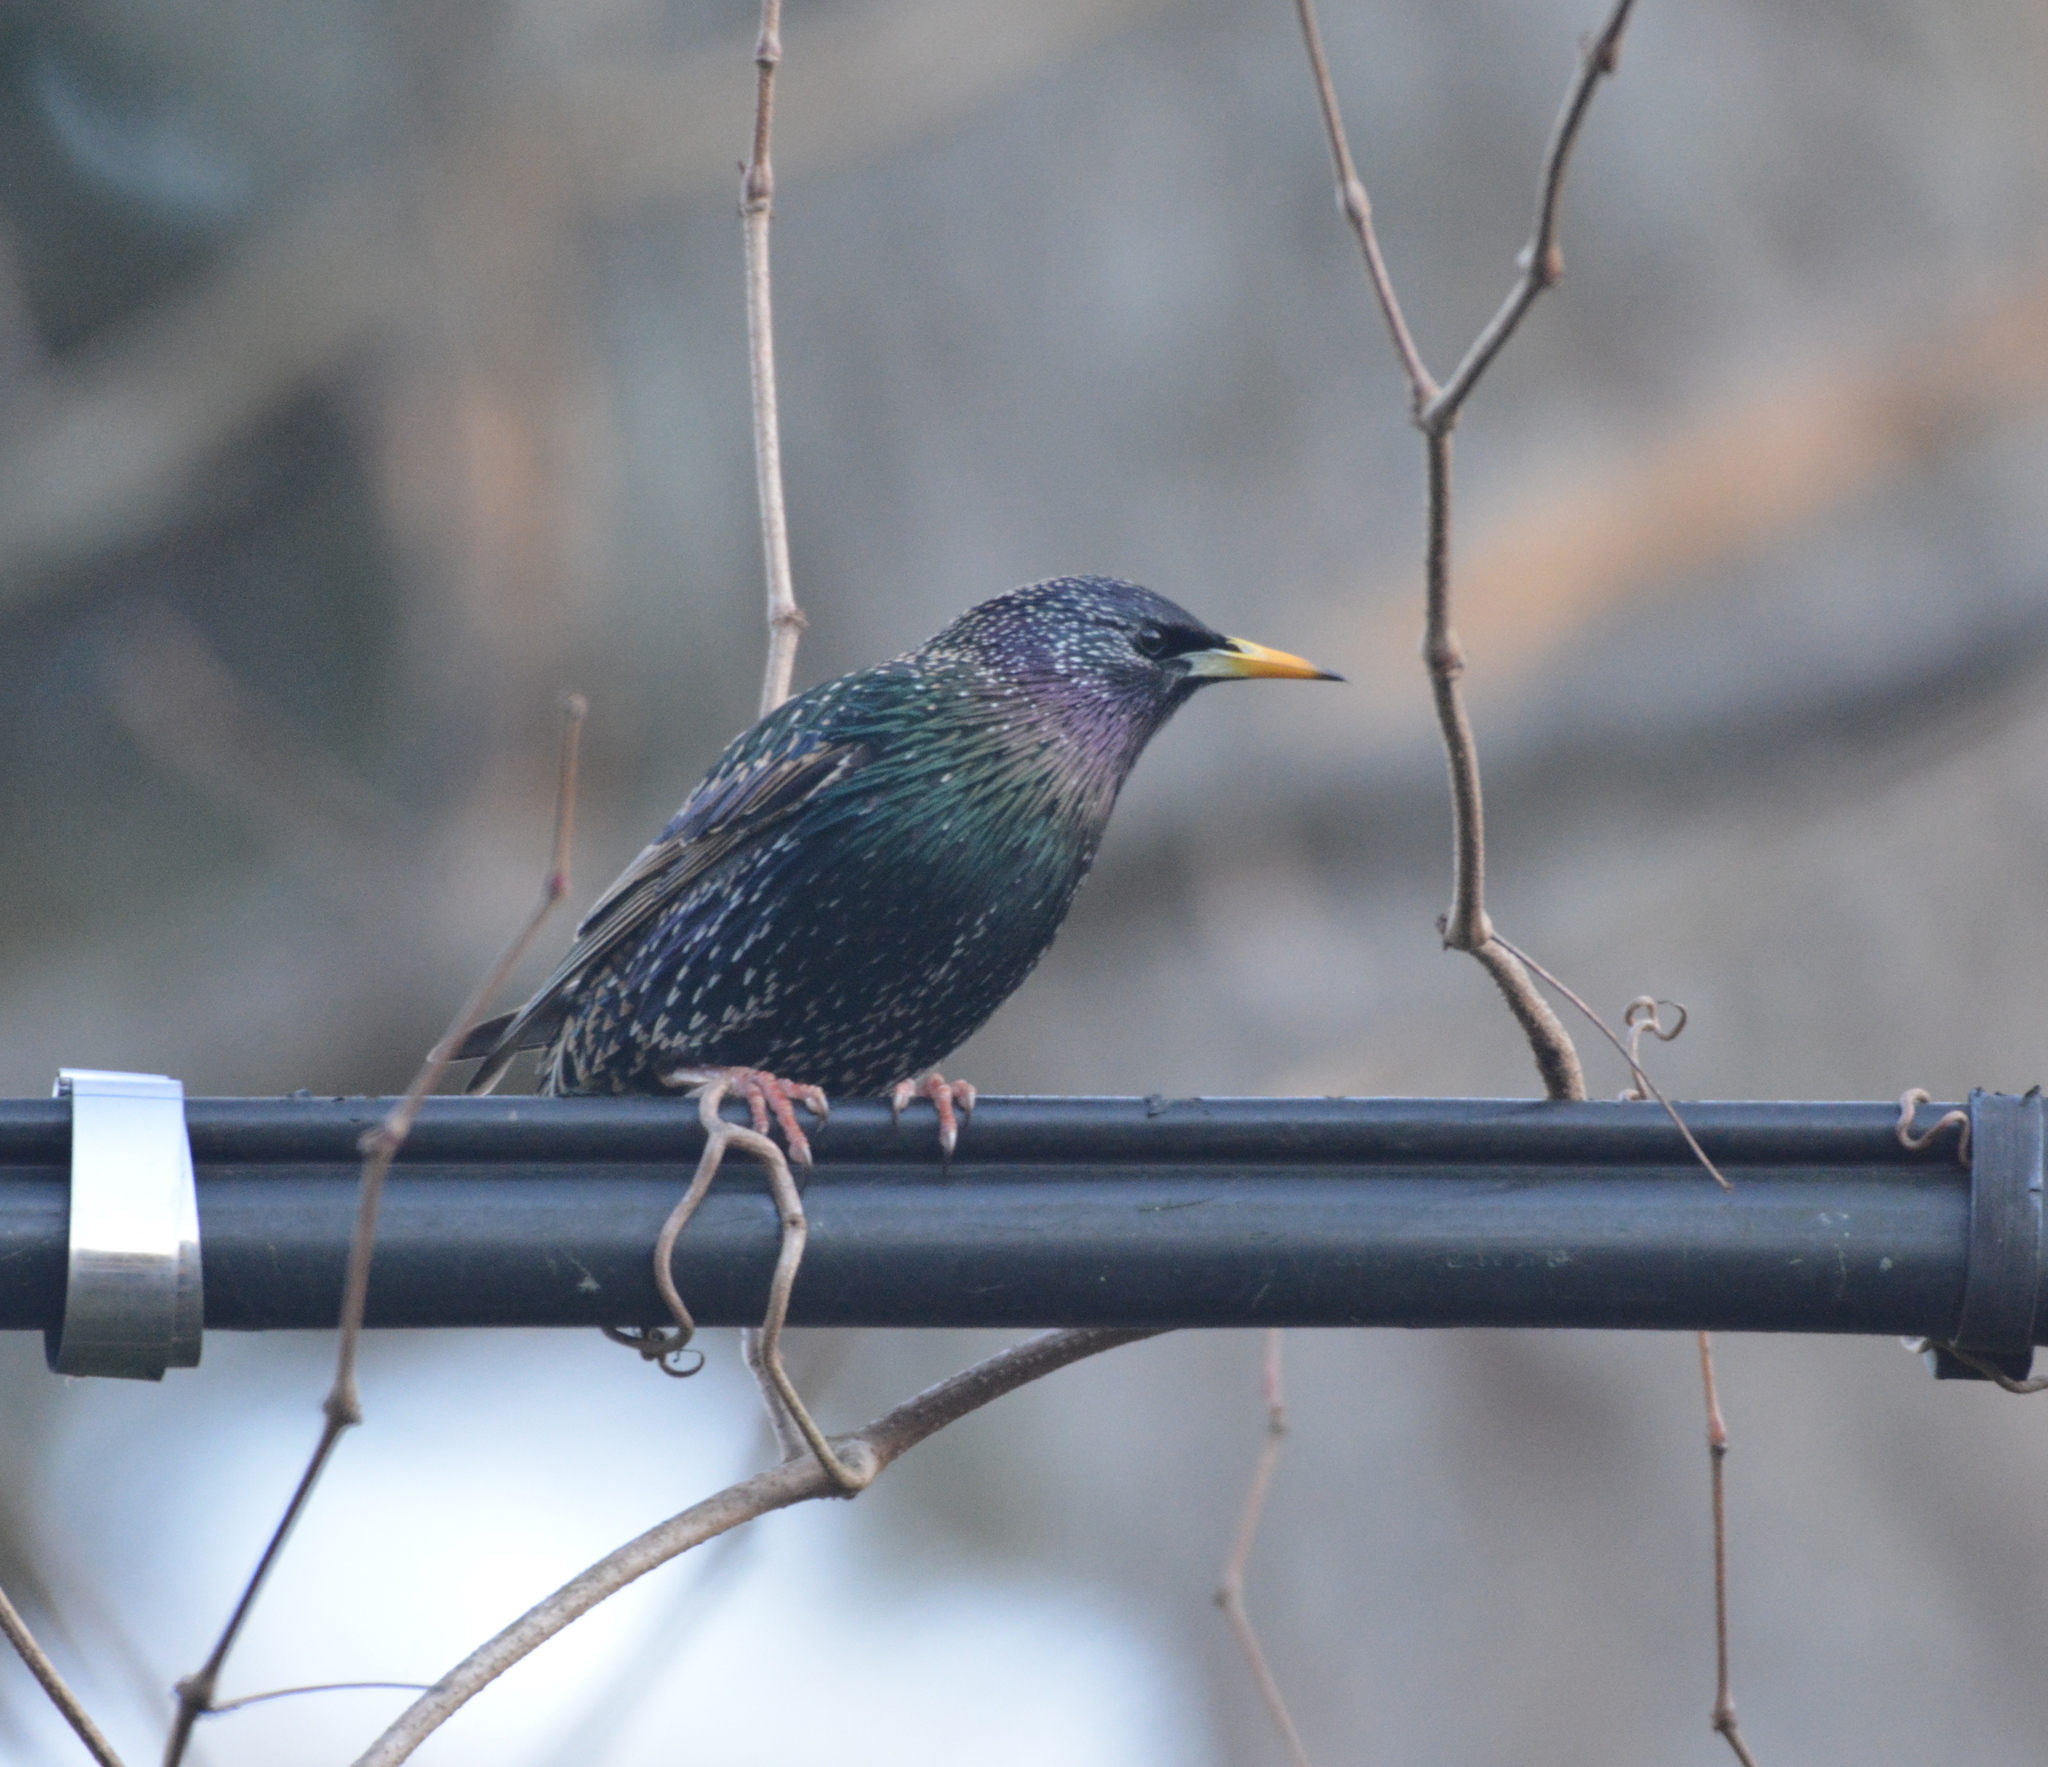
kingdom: Animalia
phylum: Chordata
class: Aves
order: Passeriformes
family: Sturnidae
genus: Sturnus
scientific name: Sturnus vulgaris
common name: Common starling
